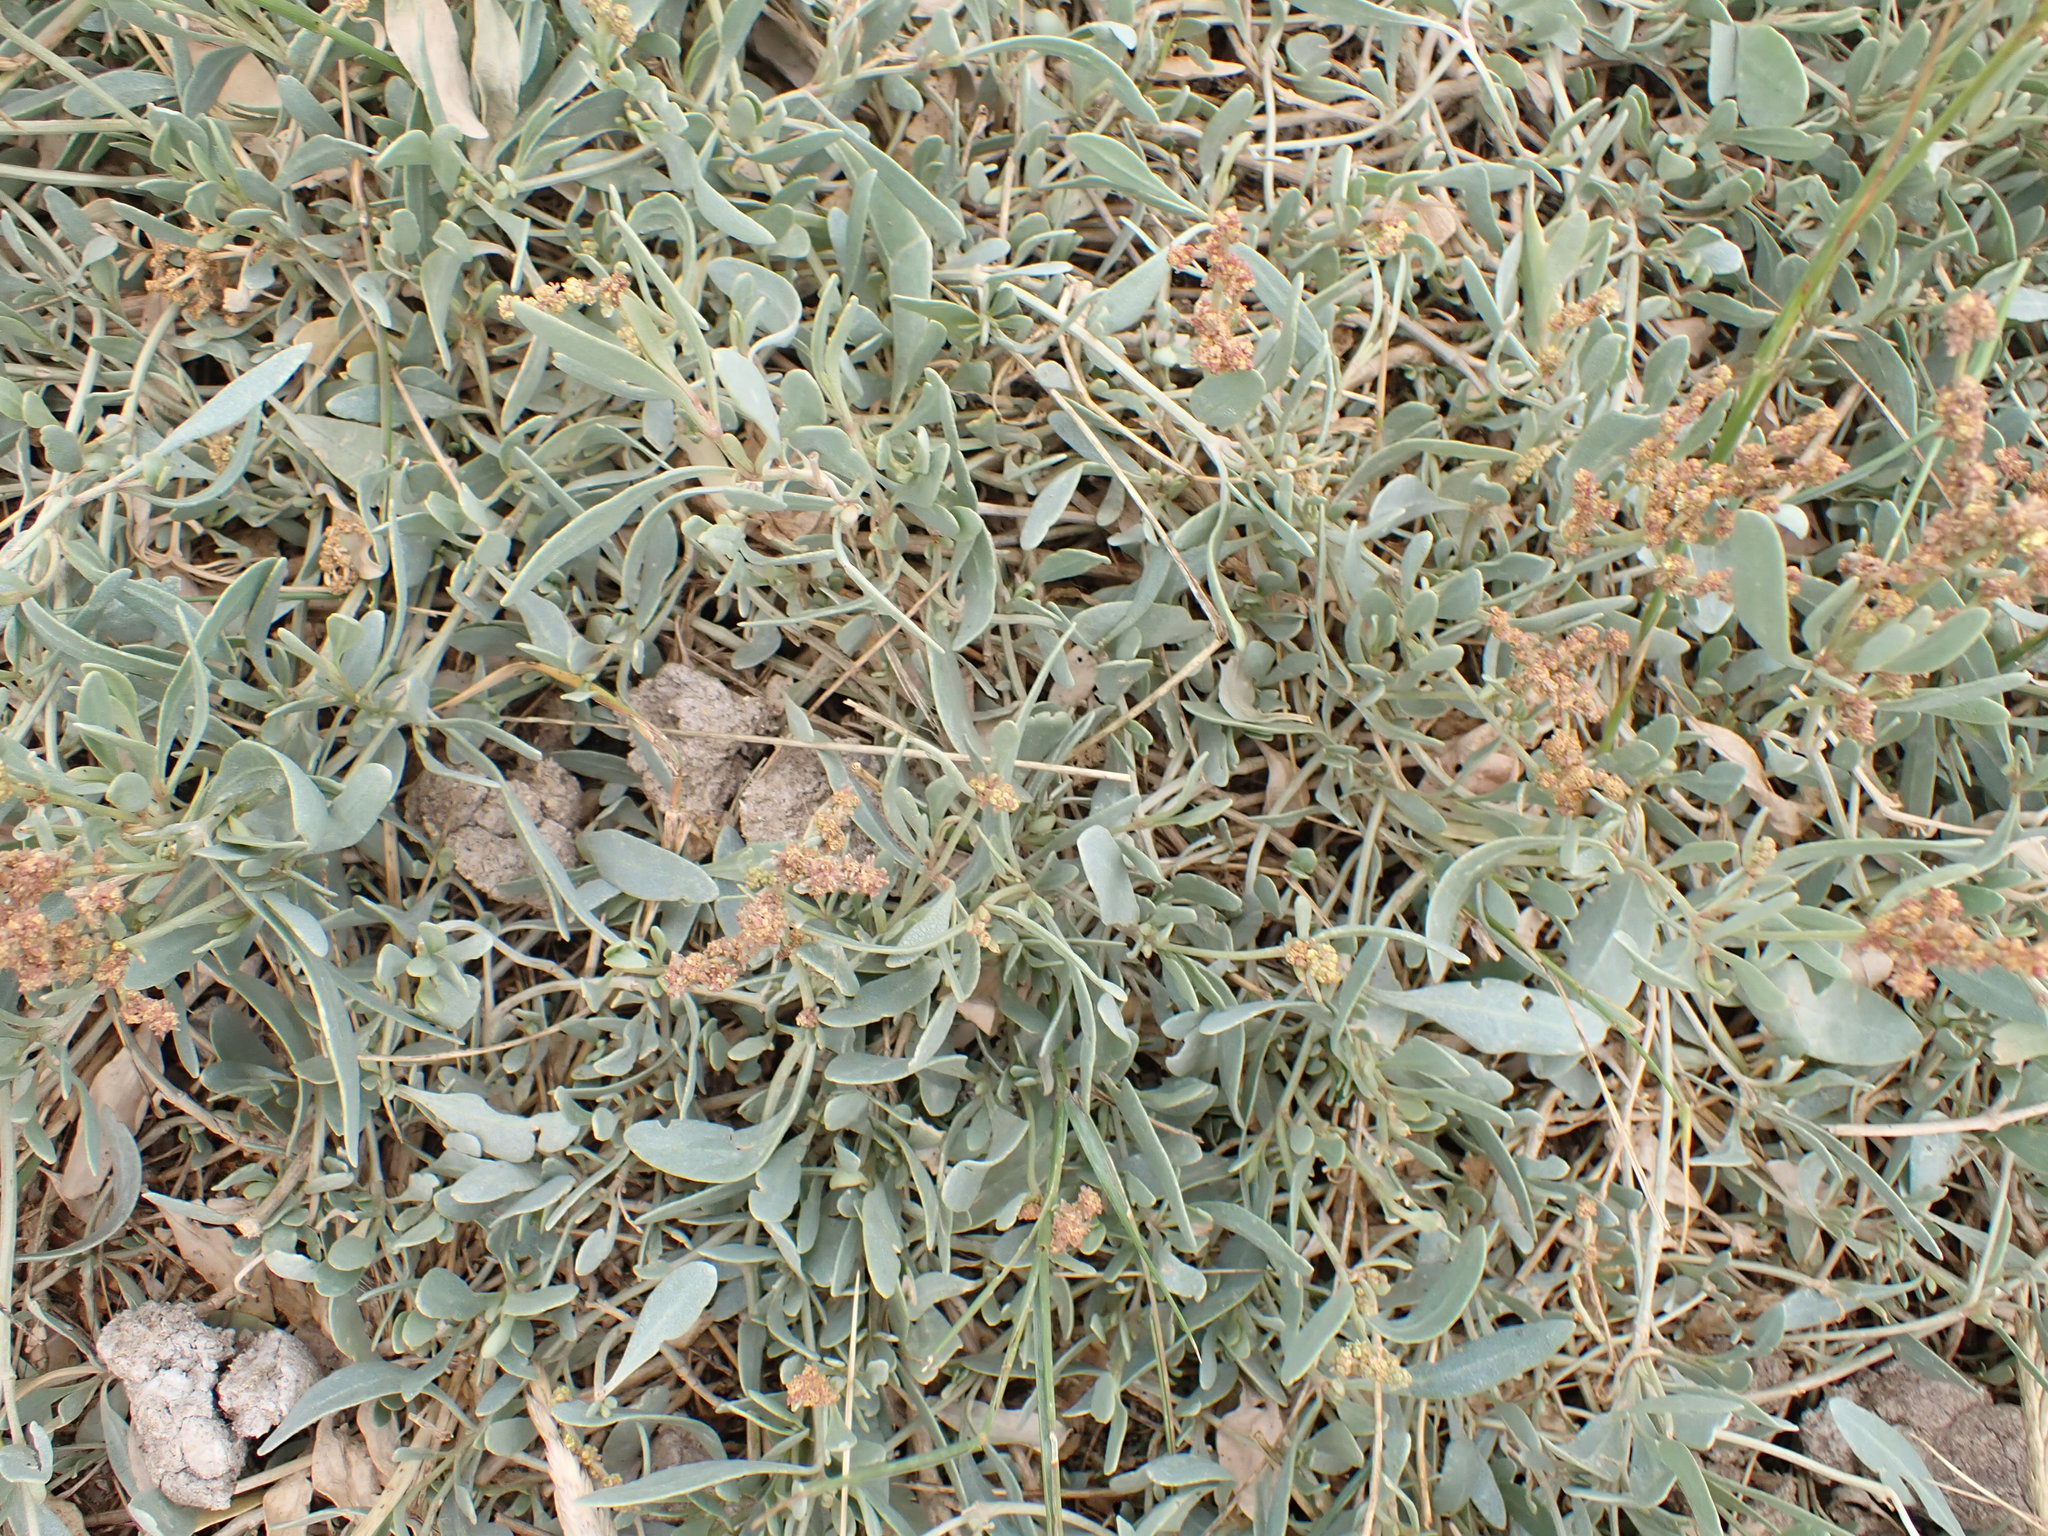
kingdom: Plantae
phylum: Tracheophyta
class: Magnoliopsida
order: Caryophyllales
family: Amaranthaceae
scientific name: Amaranthaceae
